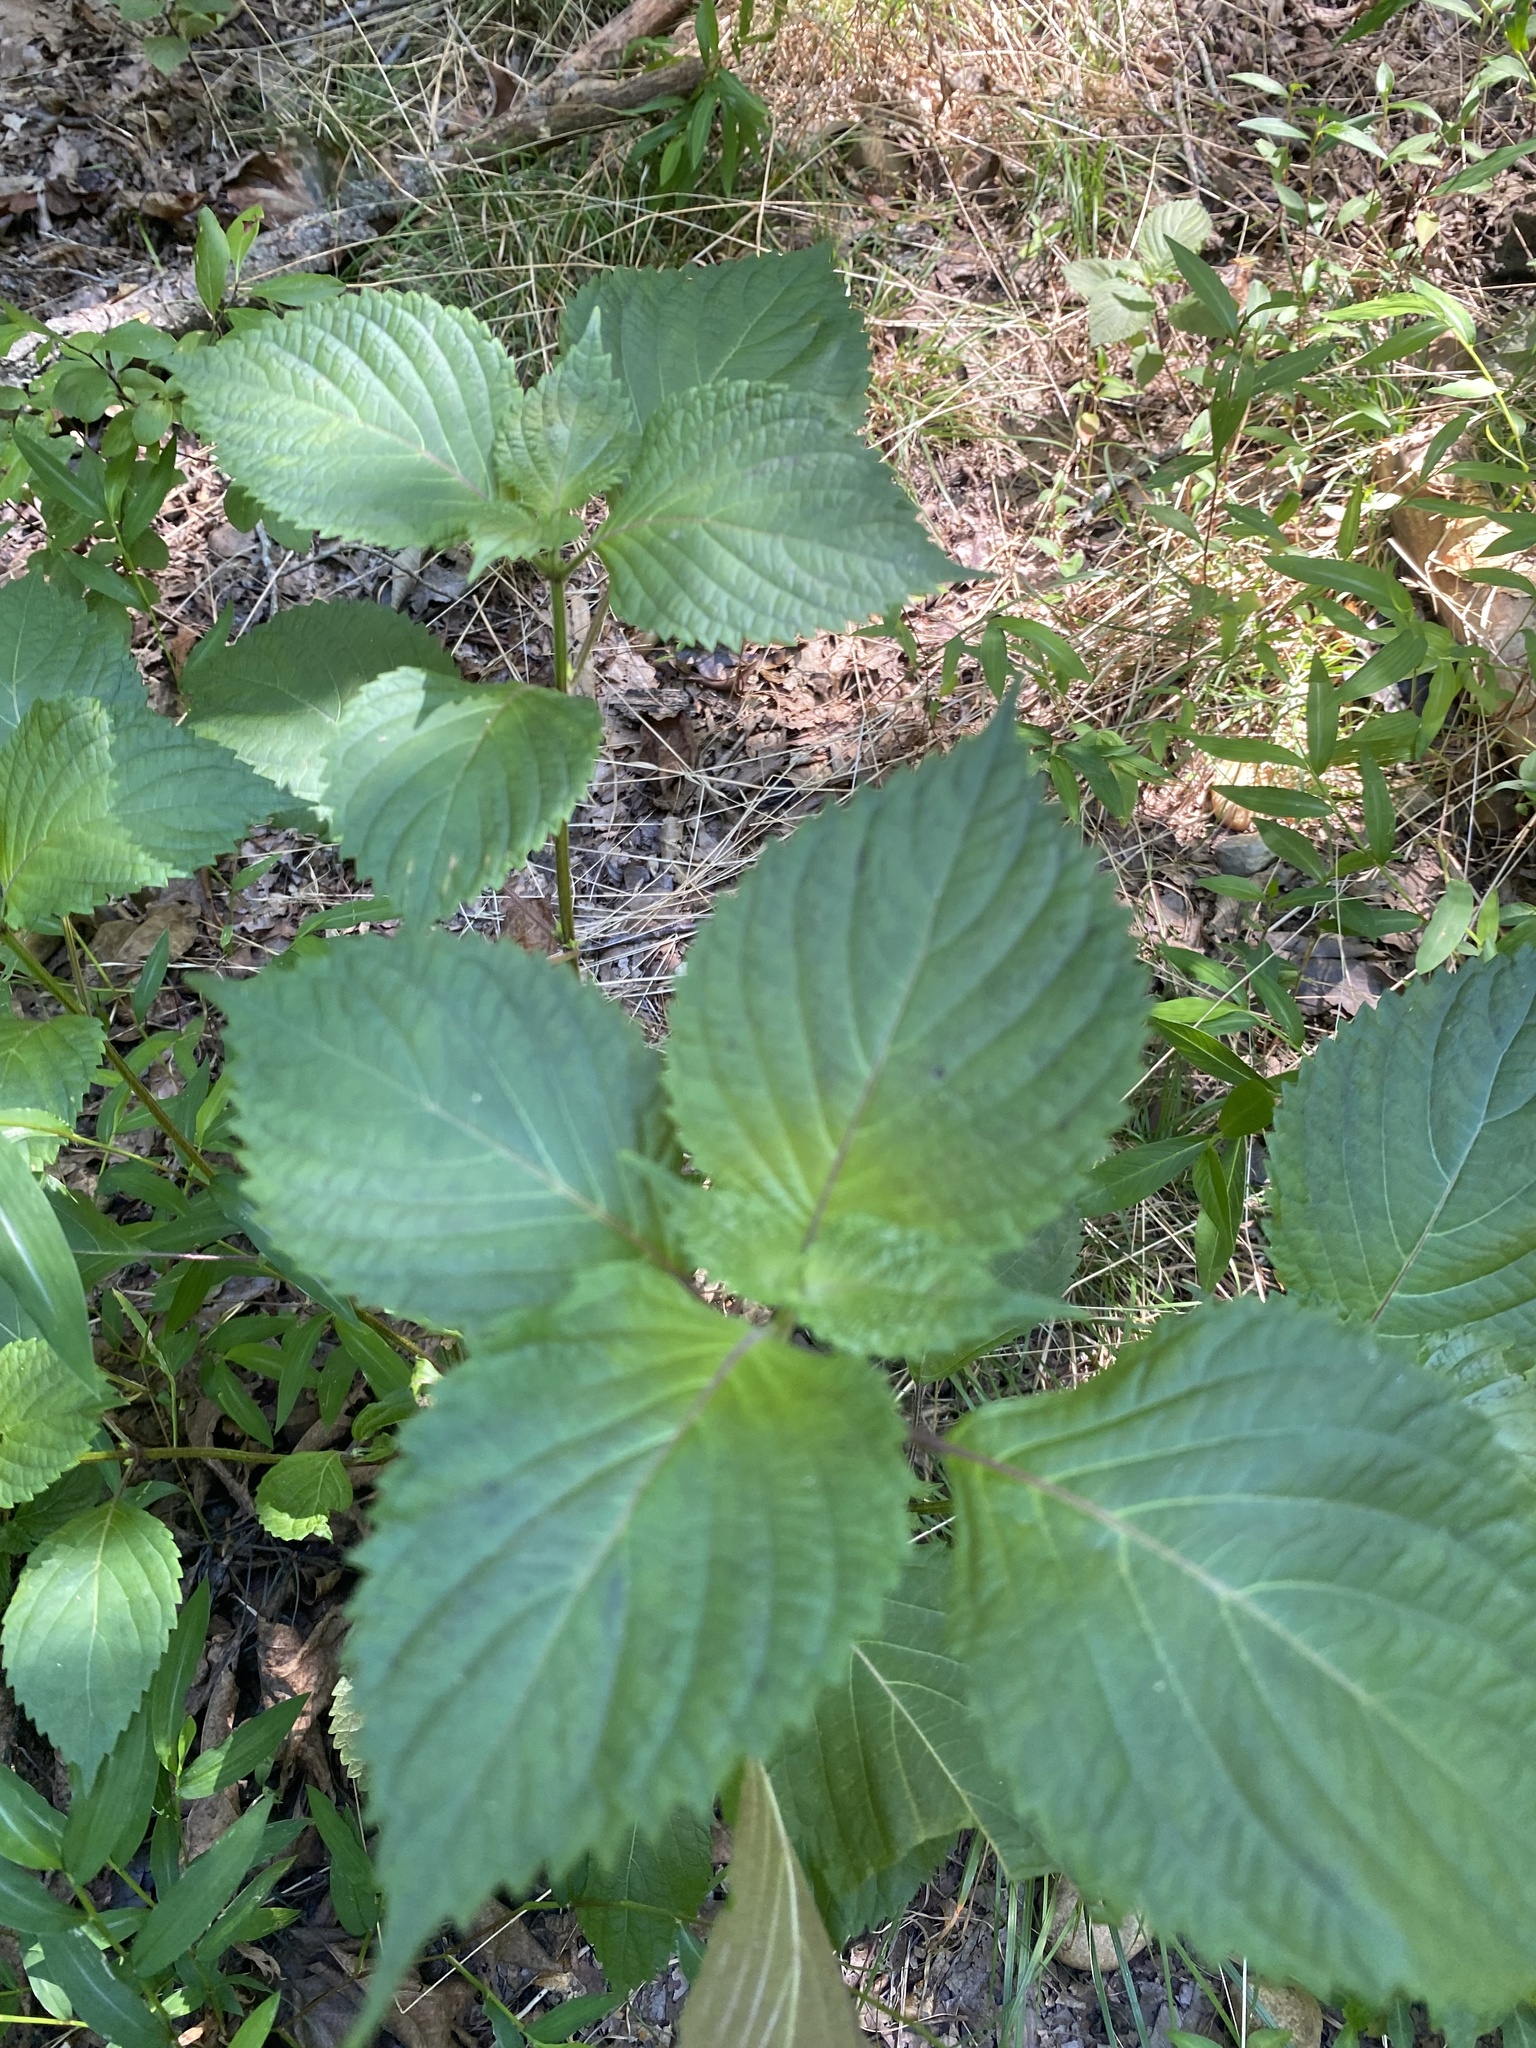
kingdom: Plantae
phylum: Tracheophyta
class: Magnoliopsida
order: Lamiales
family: Lamiaceae
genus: Perilla
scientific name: Perilla frutescens
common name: Perilla
